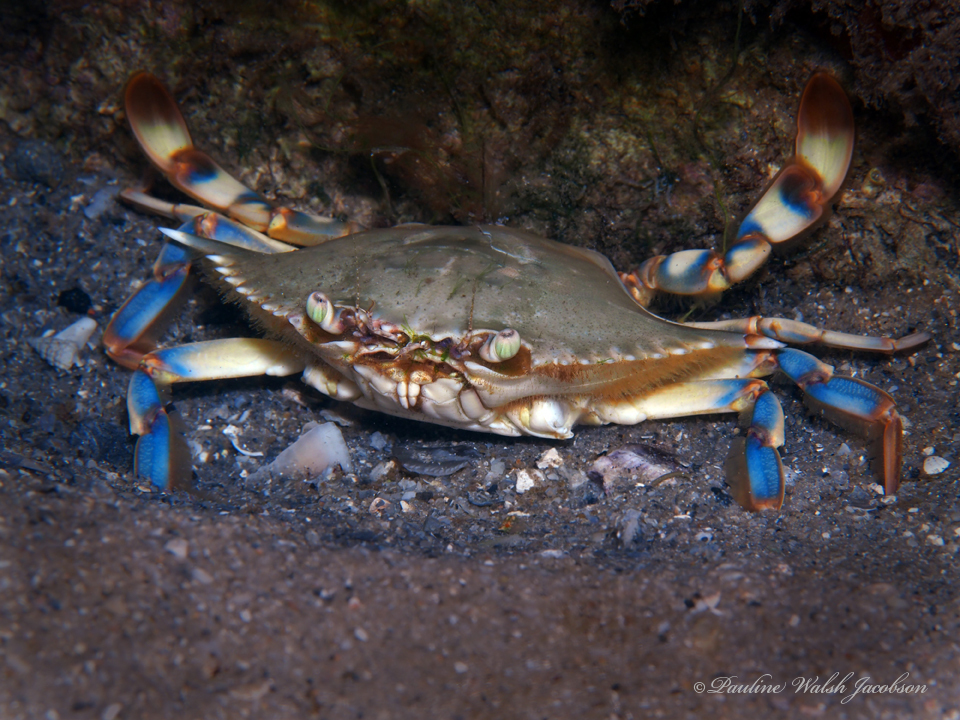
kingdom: Animalia
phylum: Arthropoda
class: Malacostraca
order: Decapoda
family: Portunidae
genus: Callinectes
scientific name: Callinectes ornatus
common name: Ornate crab
